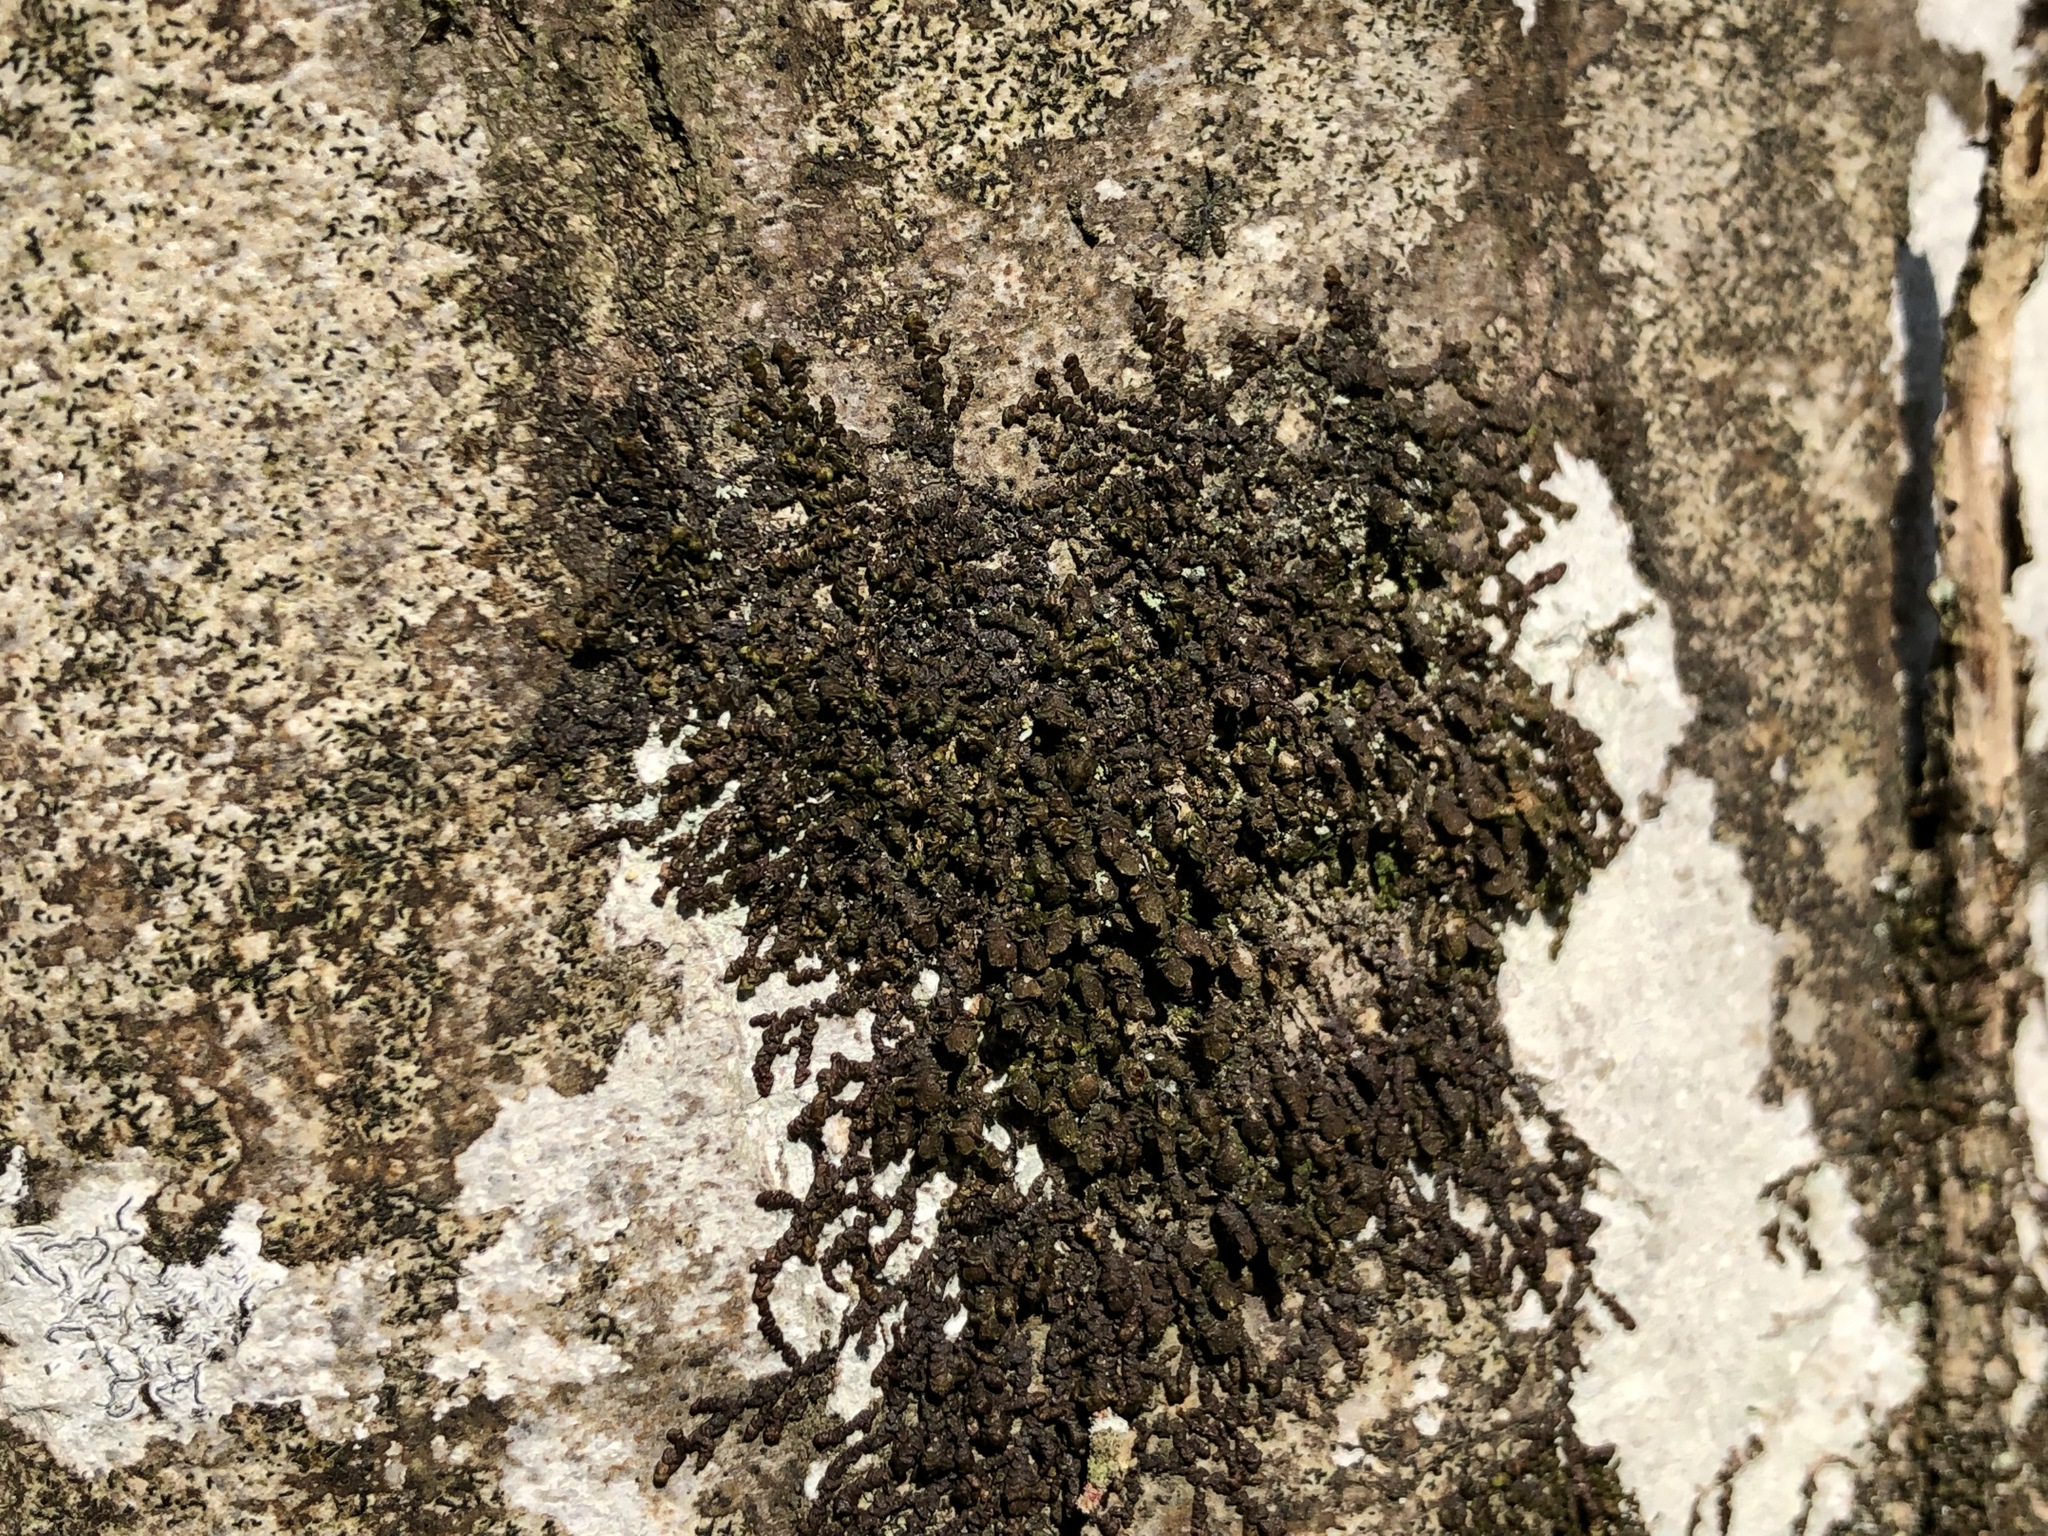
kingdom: Plantae
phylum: Marchantiophyta
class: Jungermanniopsida
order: Porellales
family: Frullaniaceae
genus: Frullania
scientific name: Frullania dilatata
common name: Dilated scalewort
